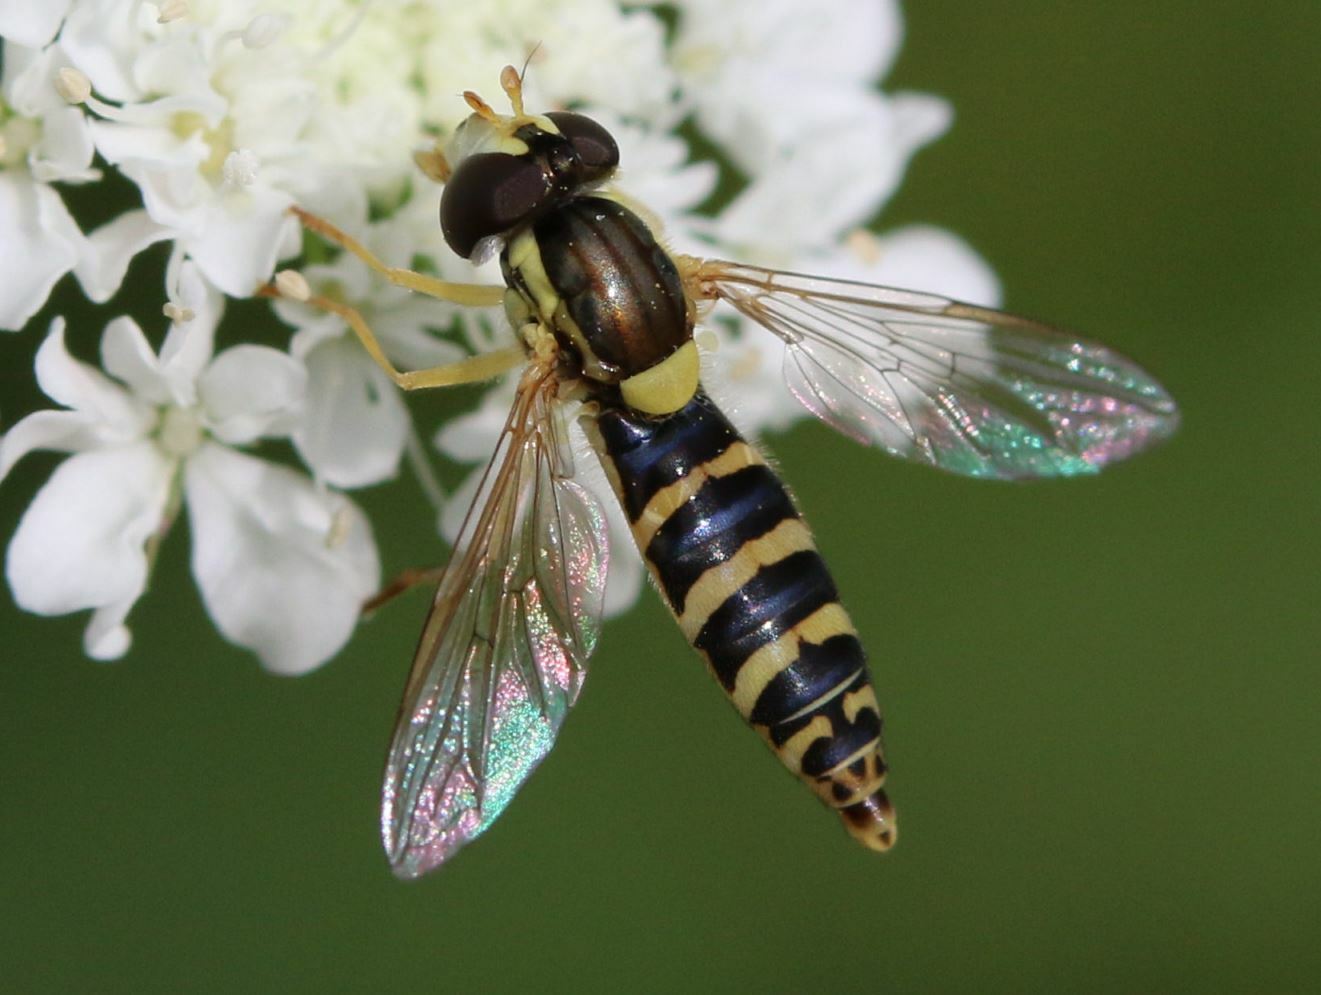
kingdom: Animalia
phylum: Arthropoda
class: Insecta
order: Diptera
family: Syrphidae
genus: Sphaerophoria
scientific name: Sphaerophoria
